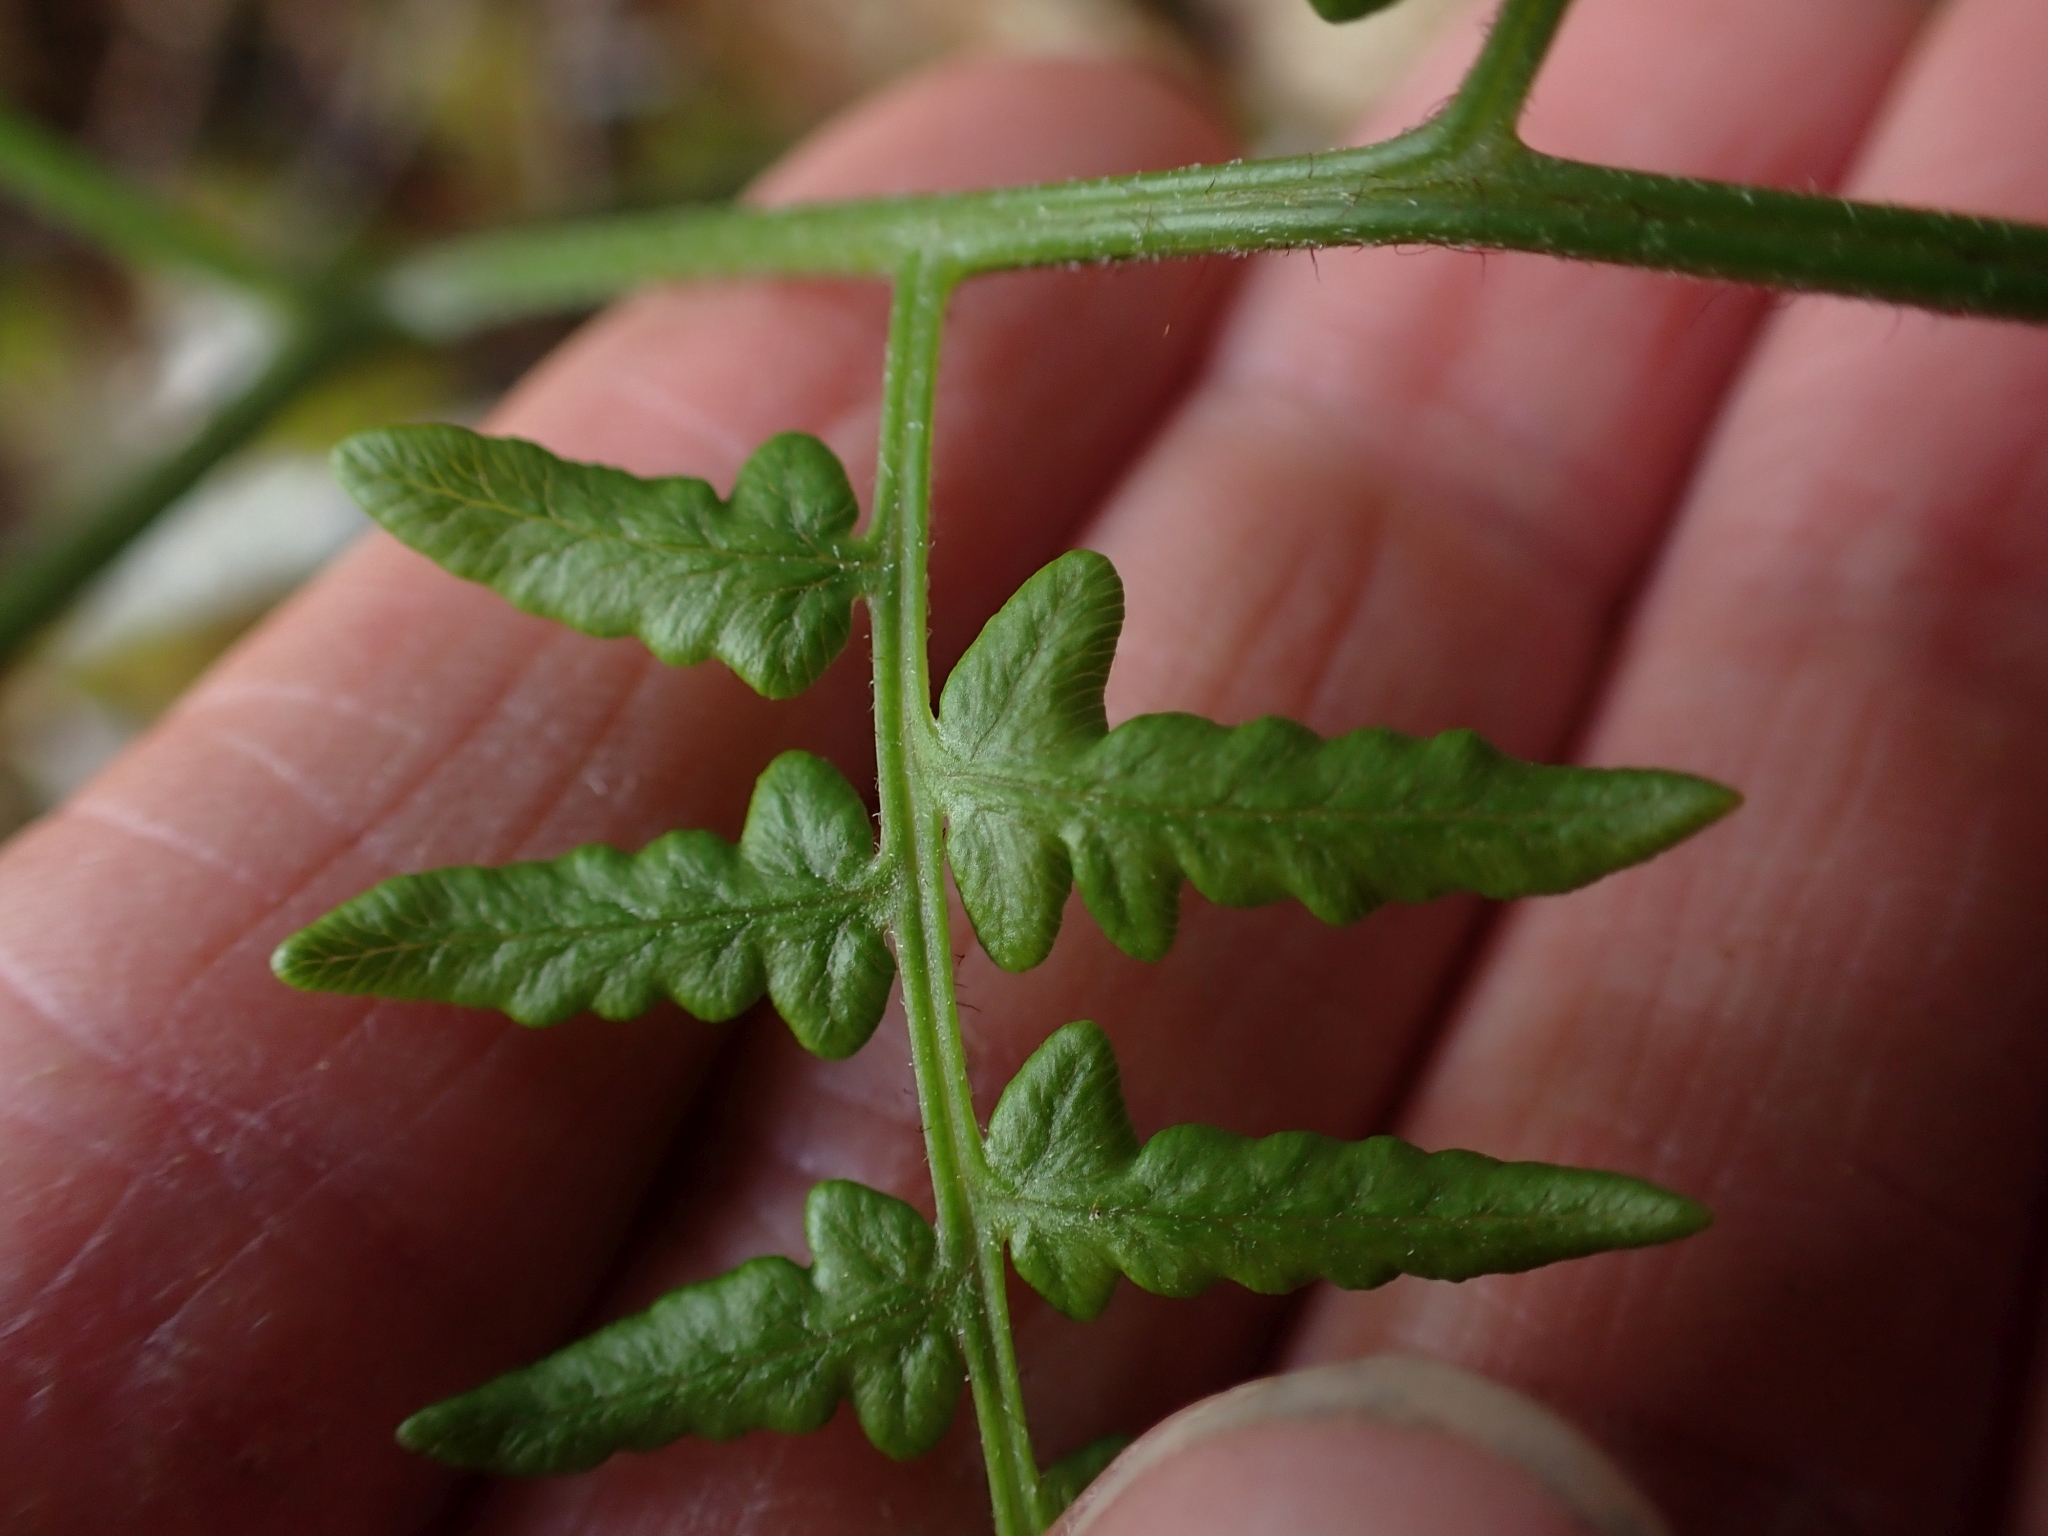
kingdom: Plantae
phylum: Tracheophyta
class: Polypodiopsida
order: Polypodiales
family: Dennstaedtiaceae
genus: Pteridium
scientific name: Pteridium aquilinum
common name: Bracken
